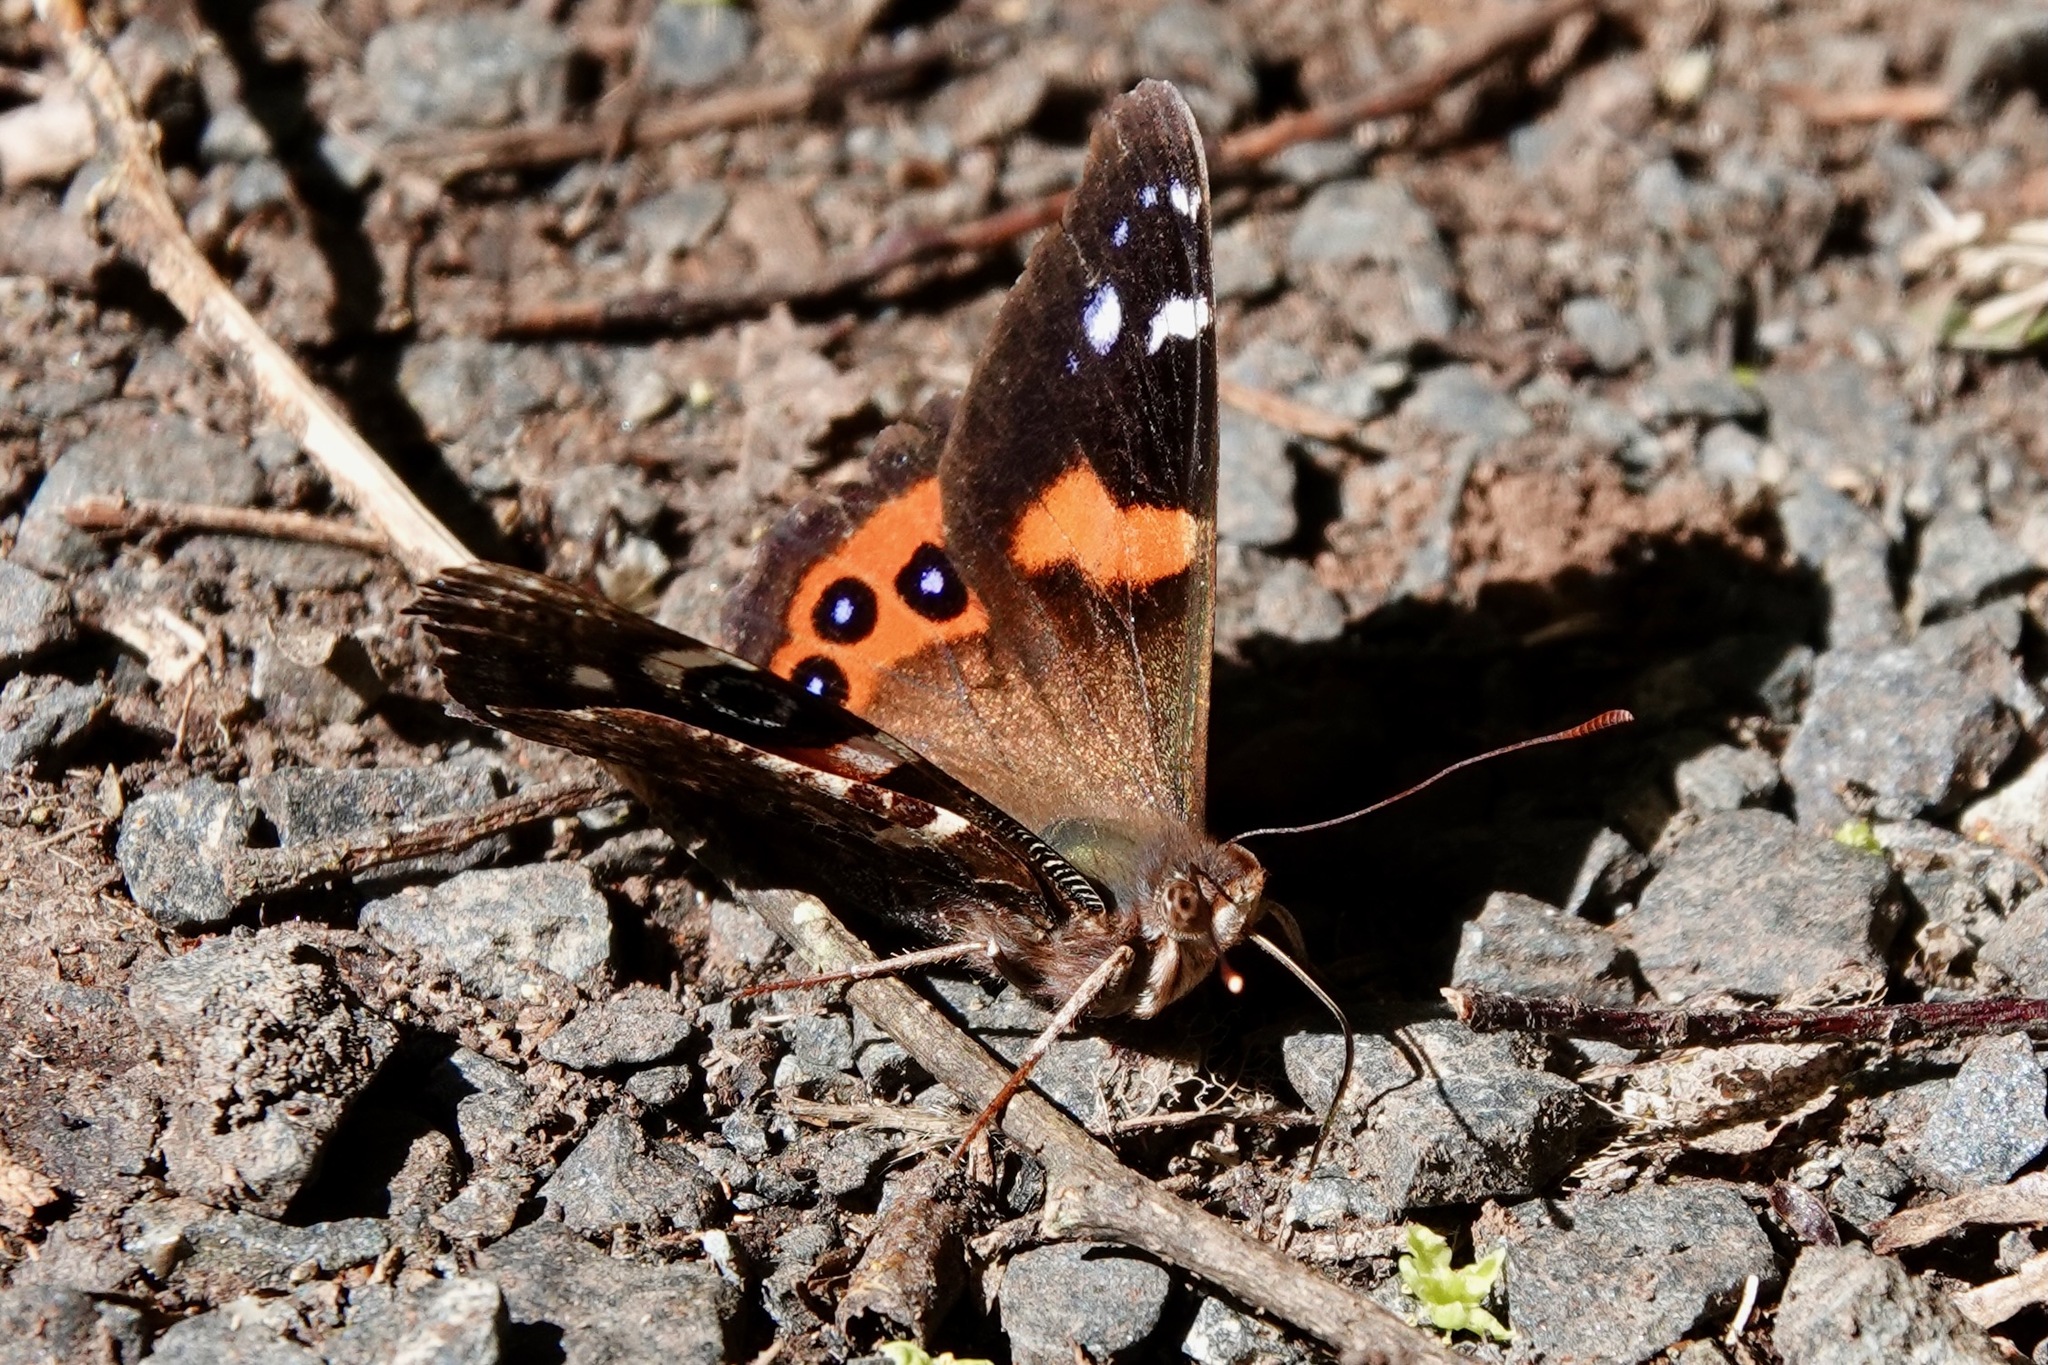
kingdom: Animalia
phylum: Arthropoda
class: Insecta
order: Lepidoptera
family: Nymphalidae
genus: Vanessa
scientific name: Vanessa gonerilla
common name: New zealand red admiral
